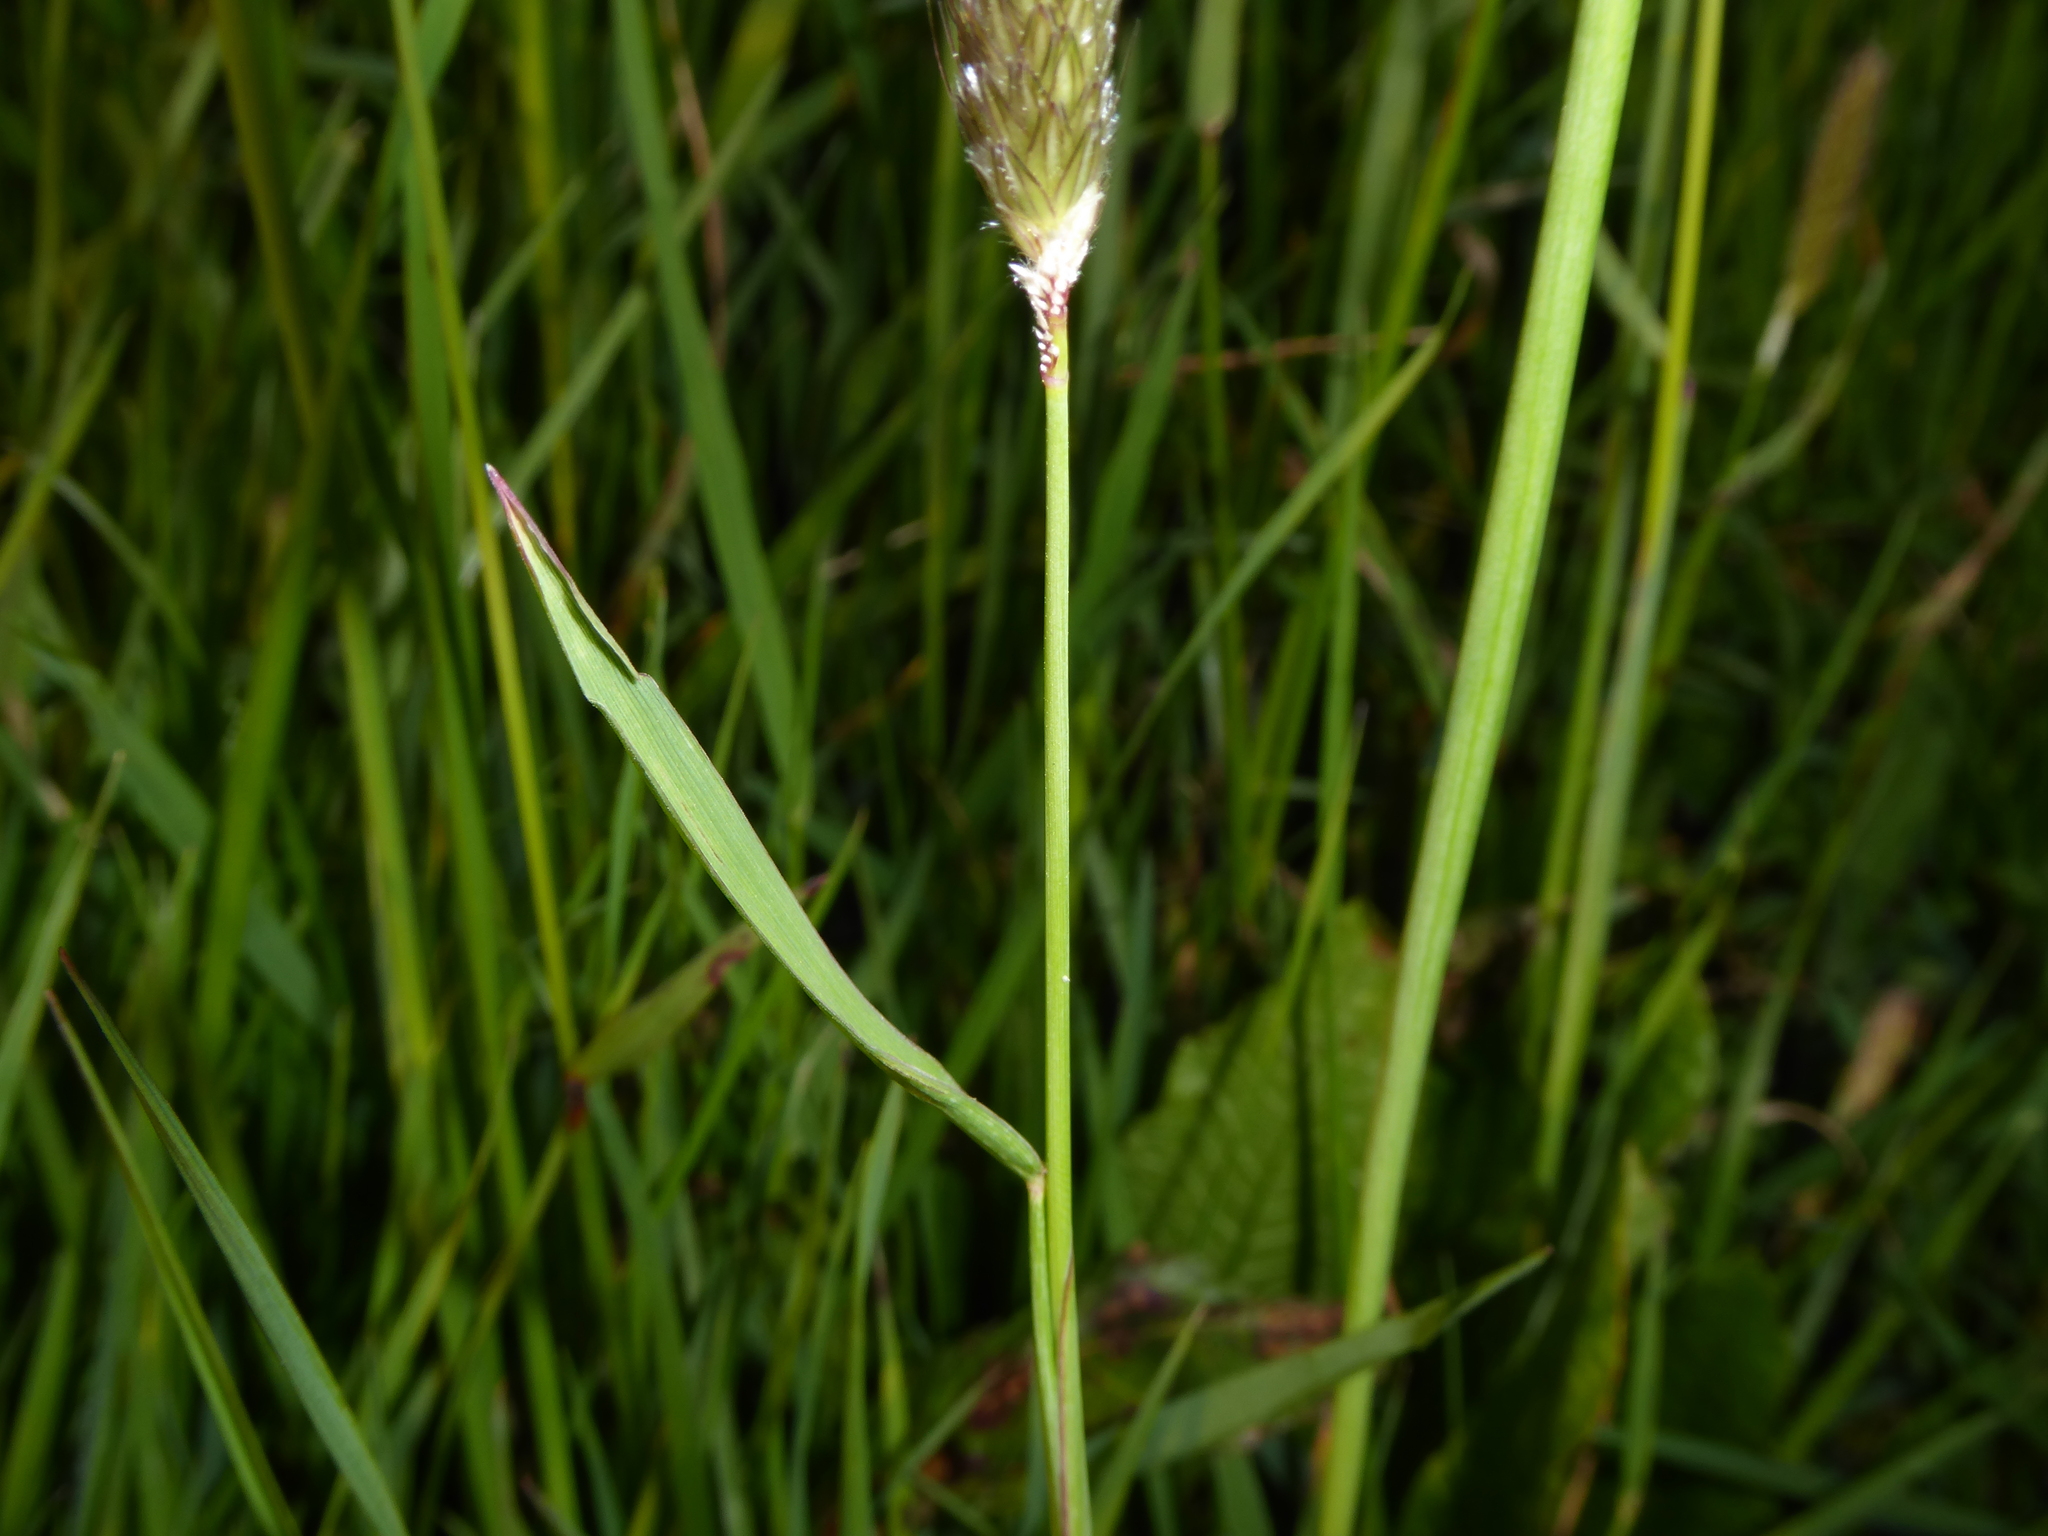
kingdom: Plantae
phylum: Tracheophyta
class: Liliopsida
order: Poales
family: Poaceae
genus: Alopecurus
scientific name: Alopecurus pratensis
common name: Meadow foxtail
